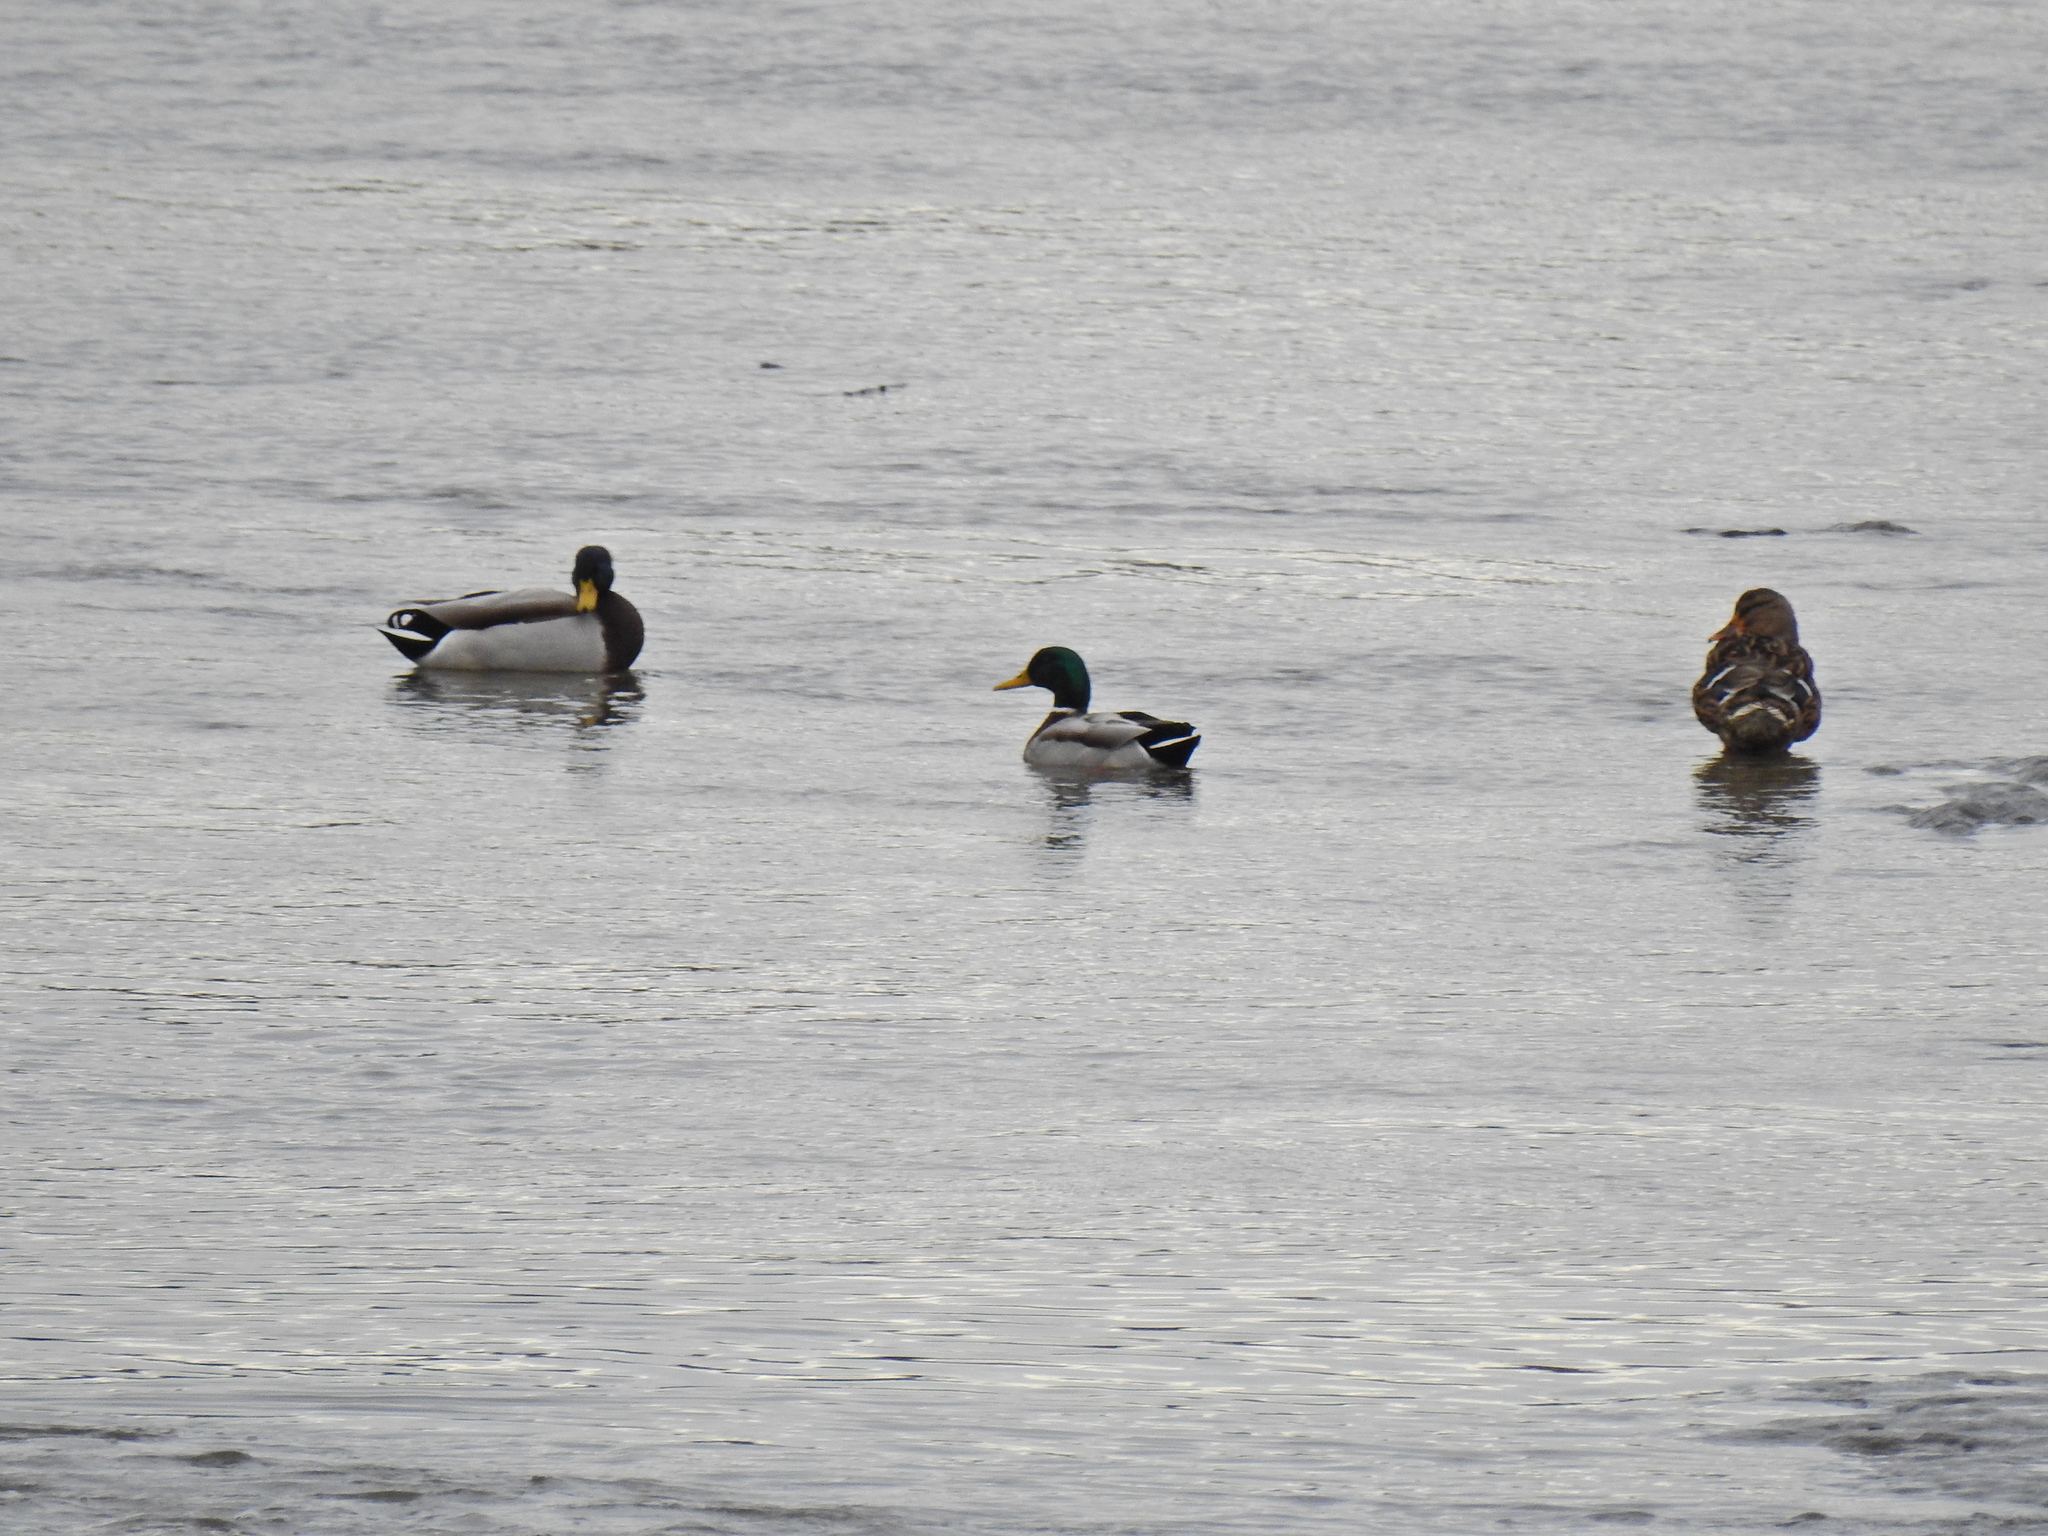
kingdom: Animalia
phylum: Chordata
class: Aves
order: Anseriformes
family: Anatidae
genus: Anas
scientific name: Anas platyrhynchos
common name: Mallard
